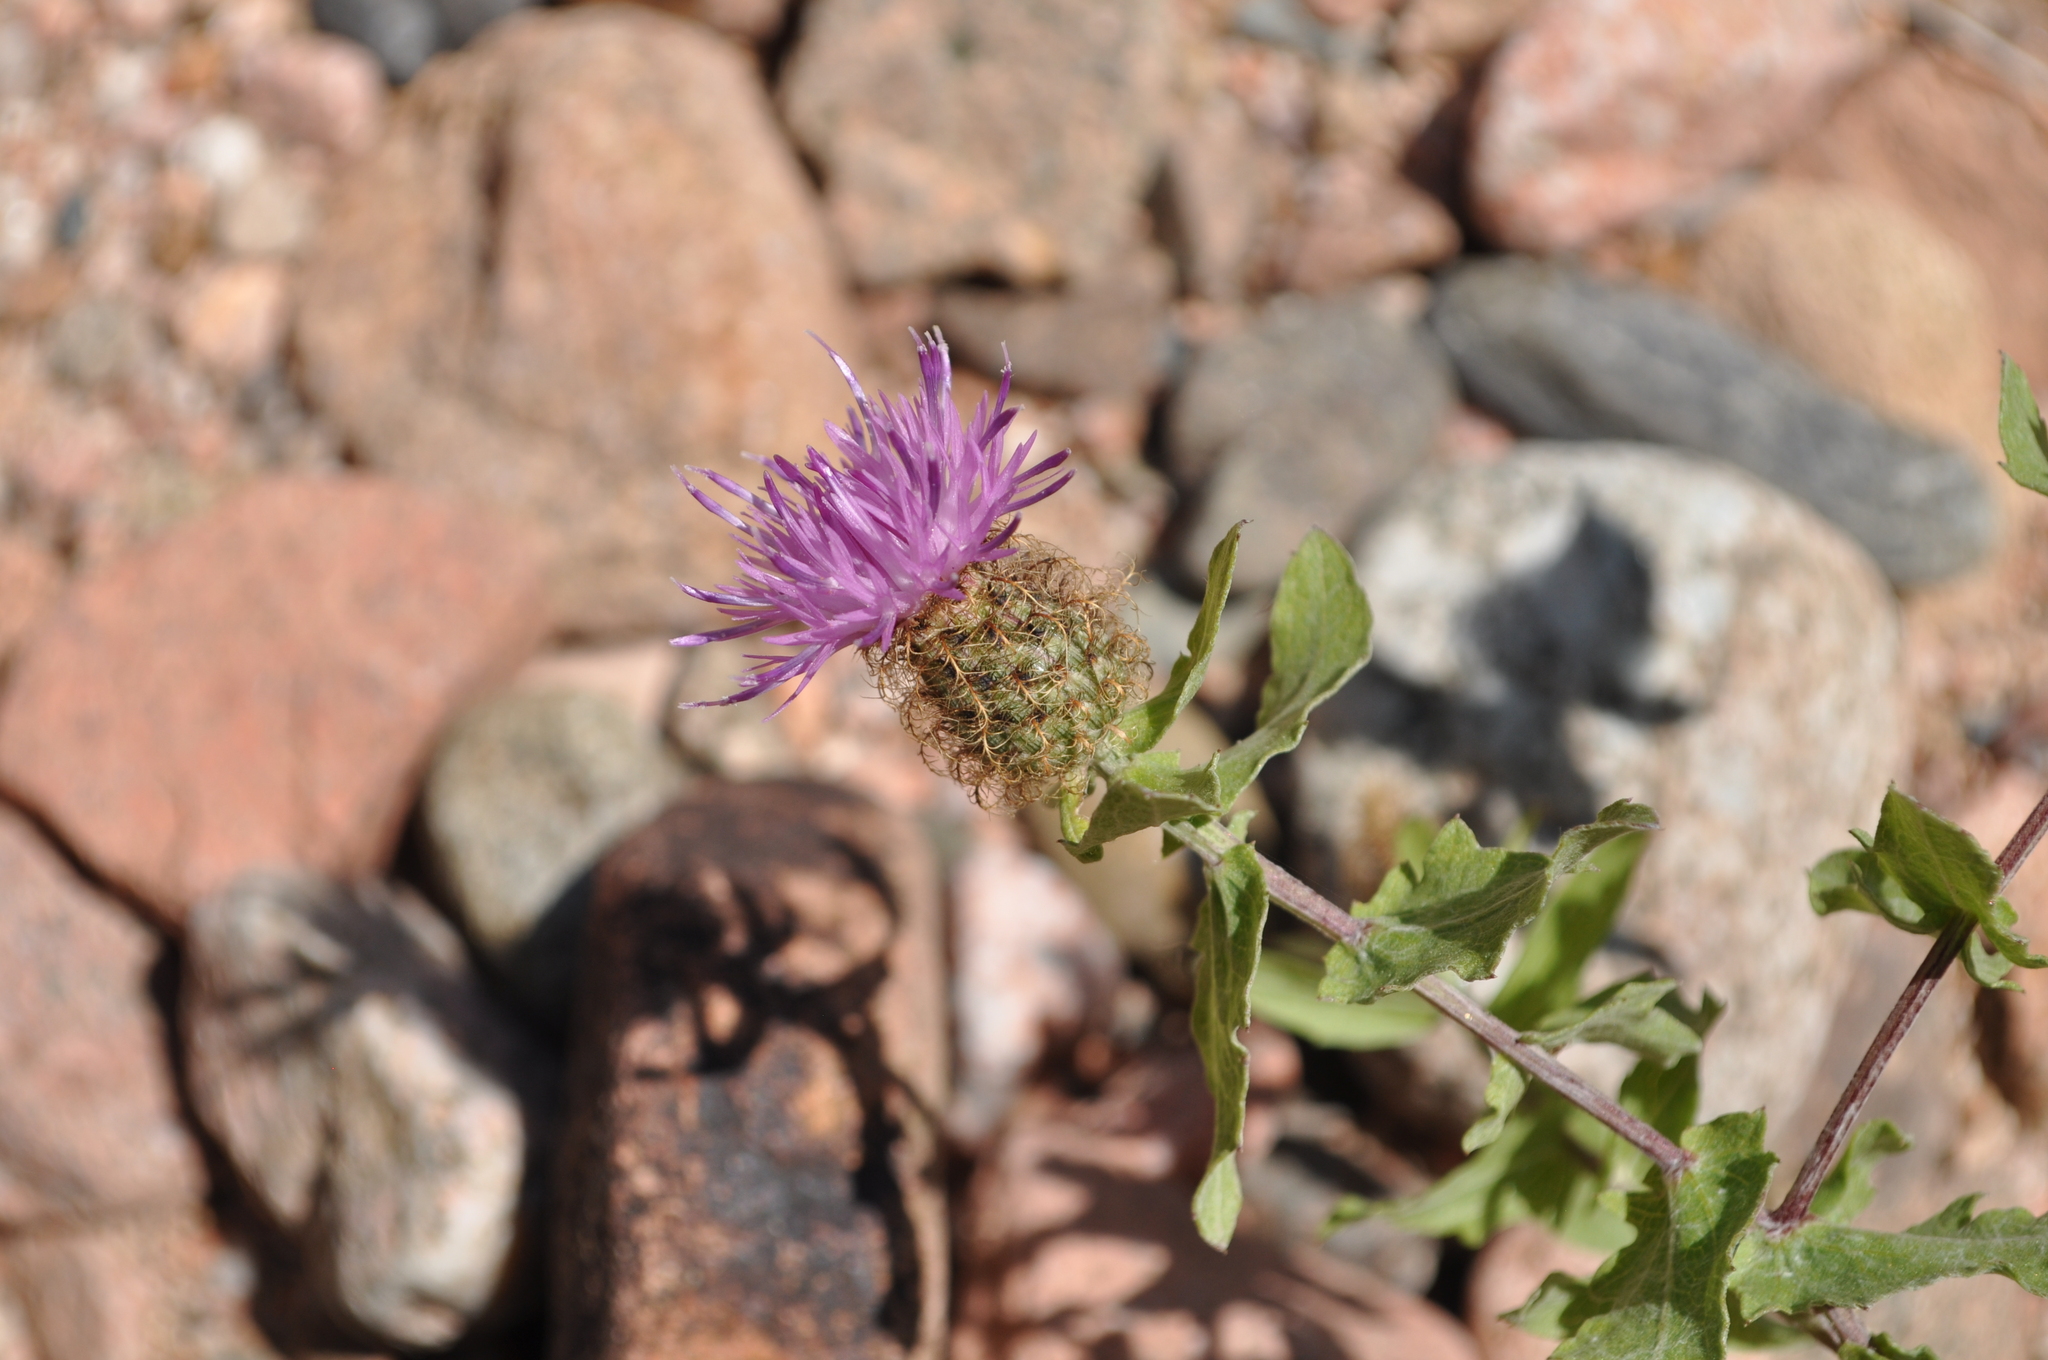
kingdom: Plantae
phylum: Tracheophyta
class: Magnoliopsida
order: Asterales
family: Asteraceae
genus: Centaurea
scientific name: Centaurea pectinata
